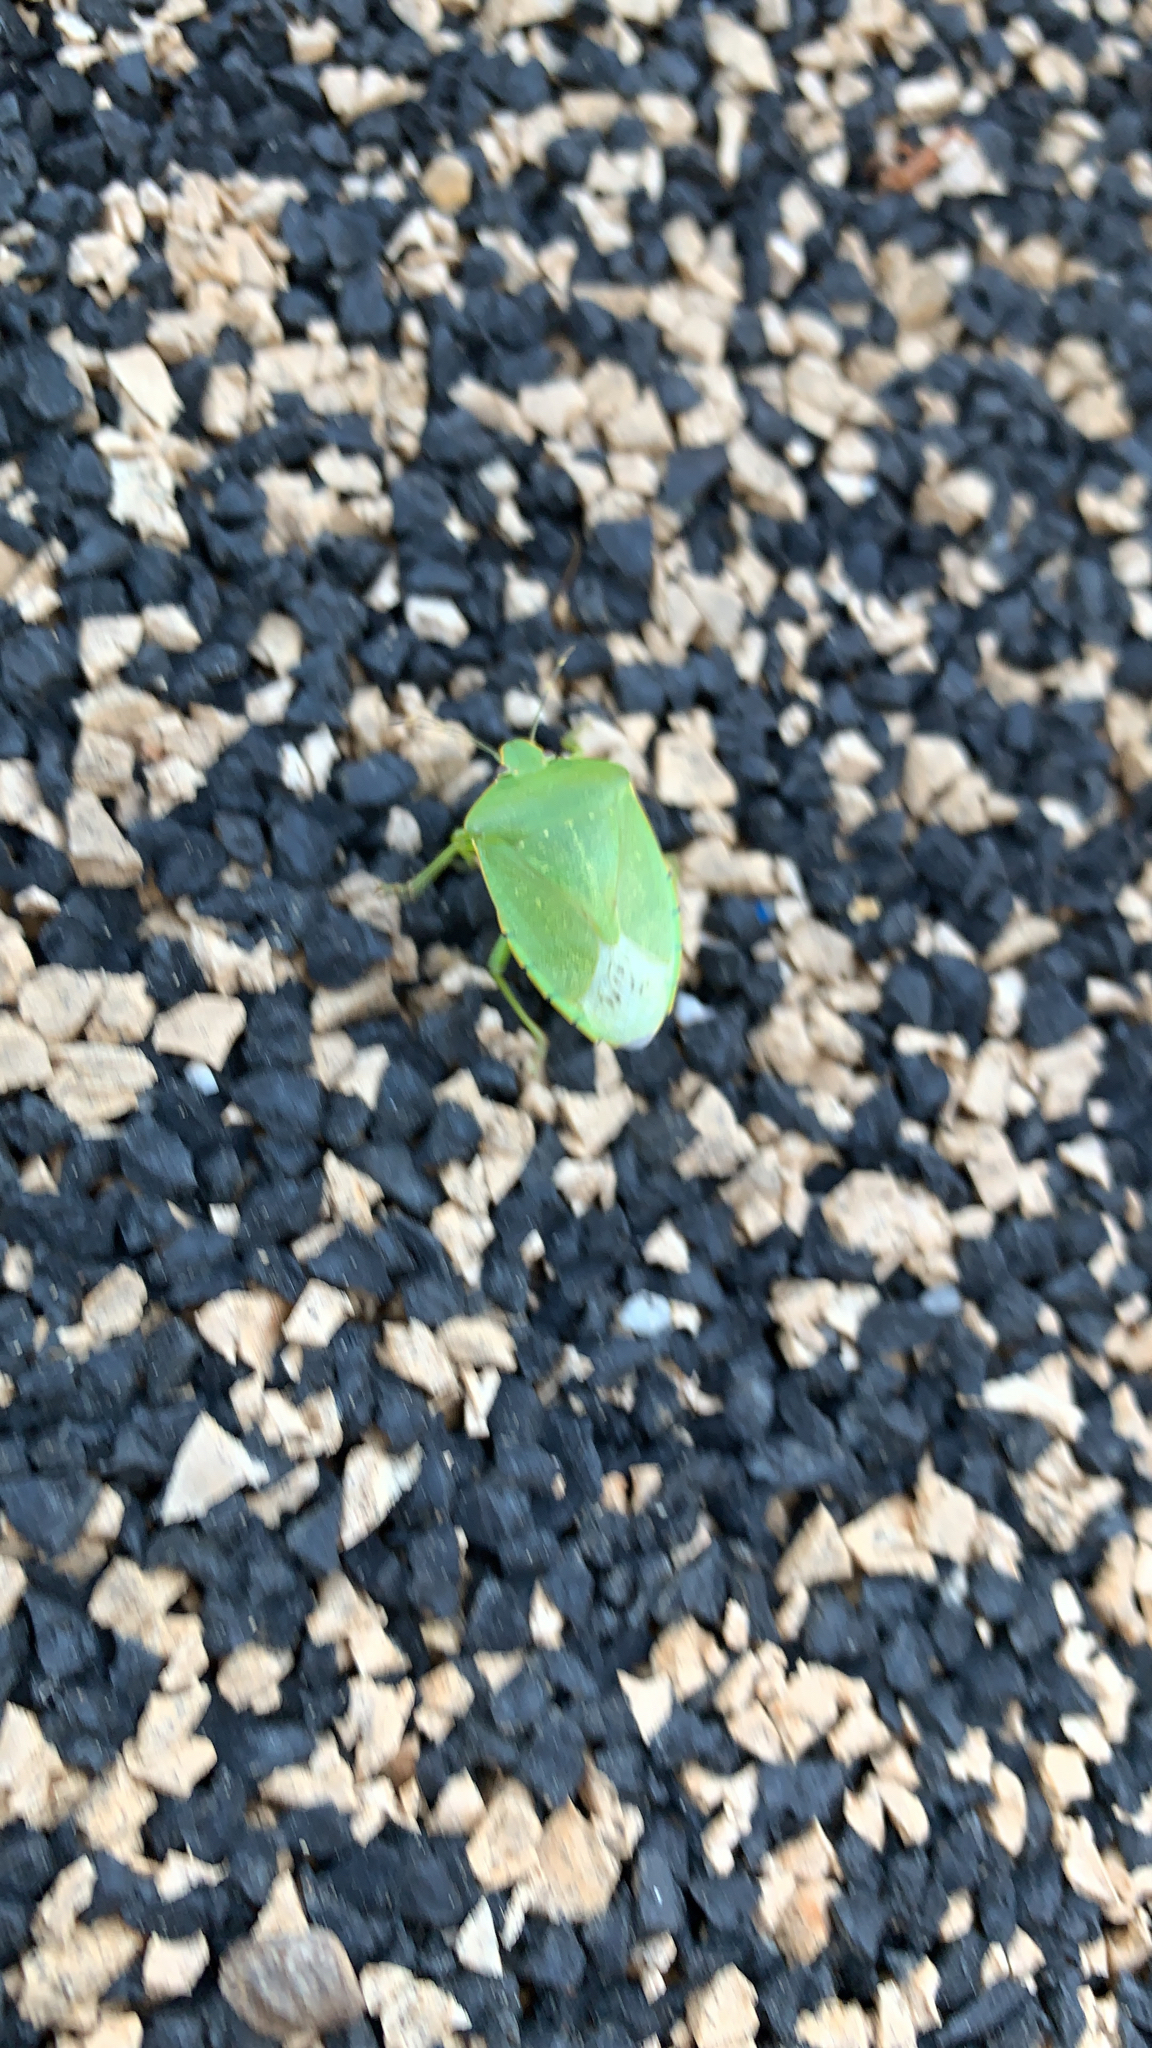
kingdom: Animalia
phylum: Arthropoda
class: Insecta
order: Hemiptera
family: Pentatomidae
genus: Chinavia
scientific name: Chinavia hilaris
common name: Green stink bug
